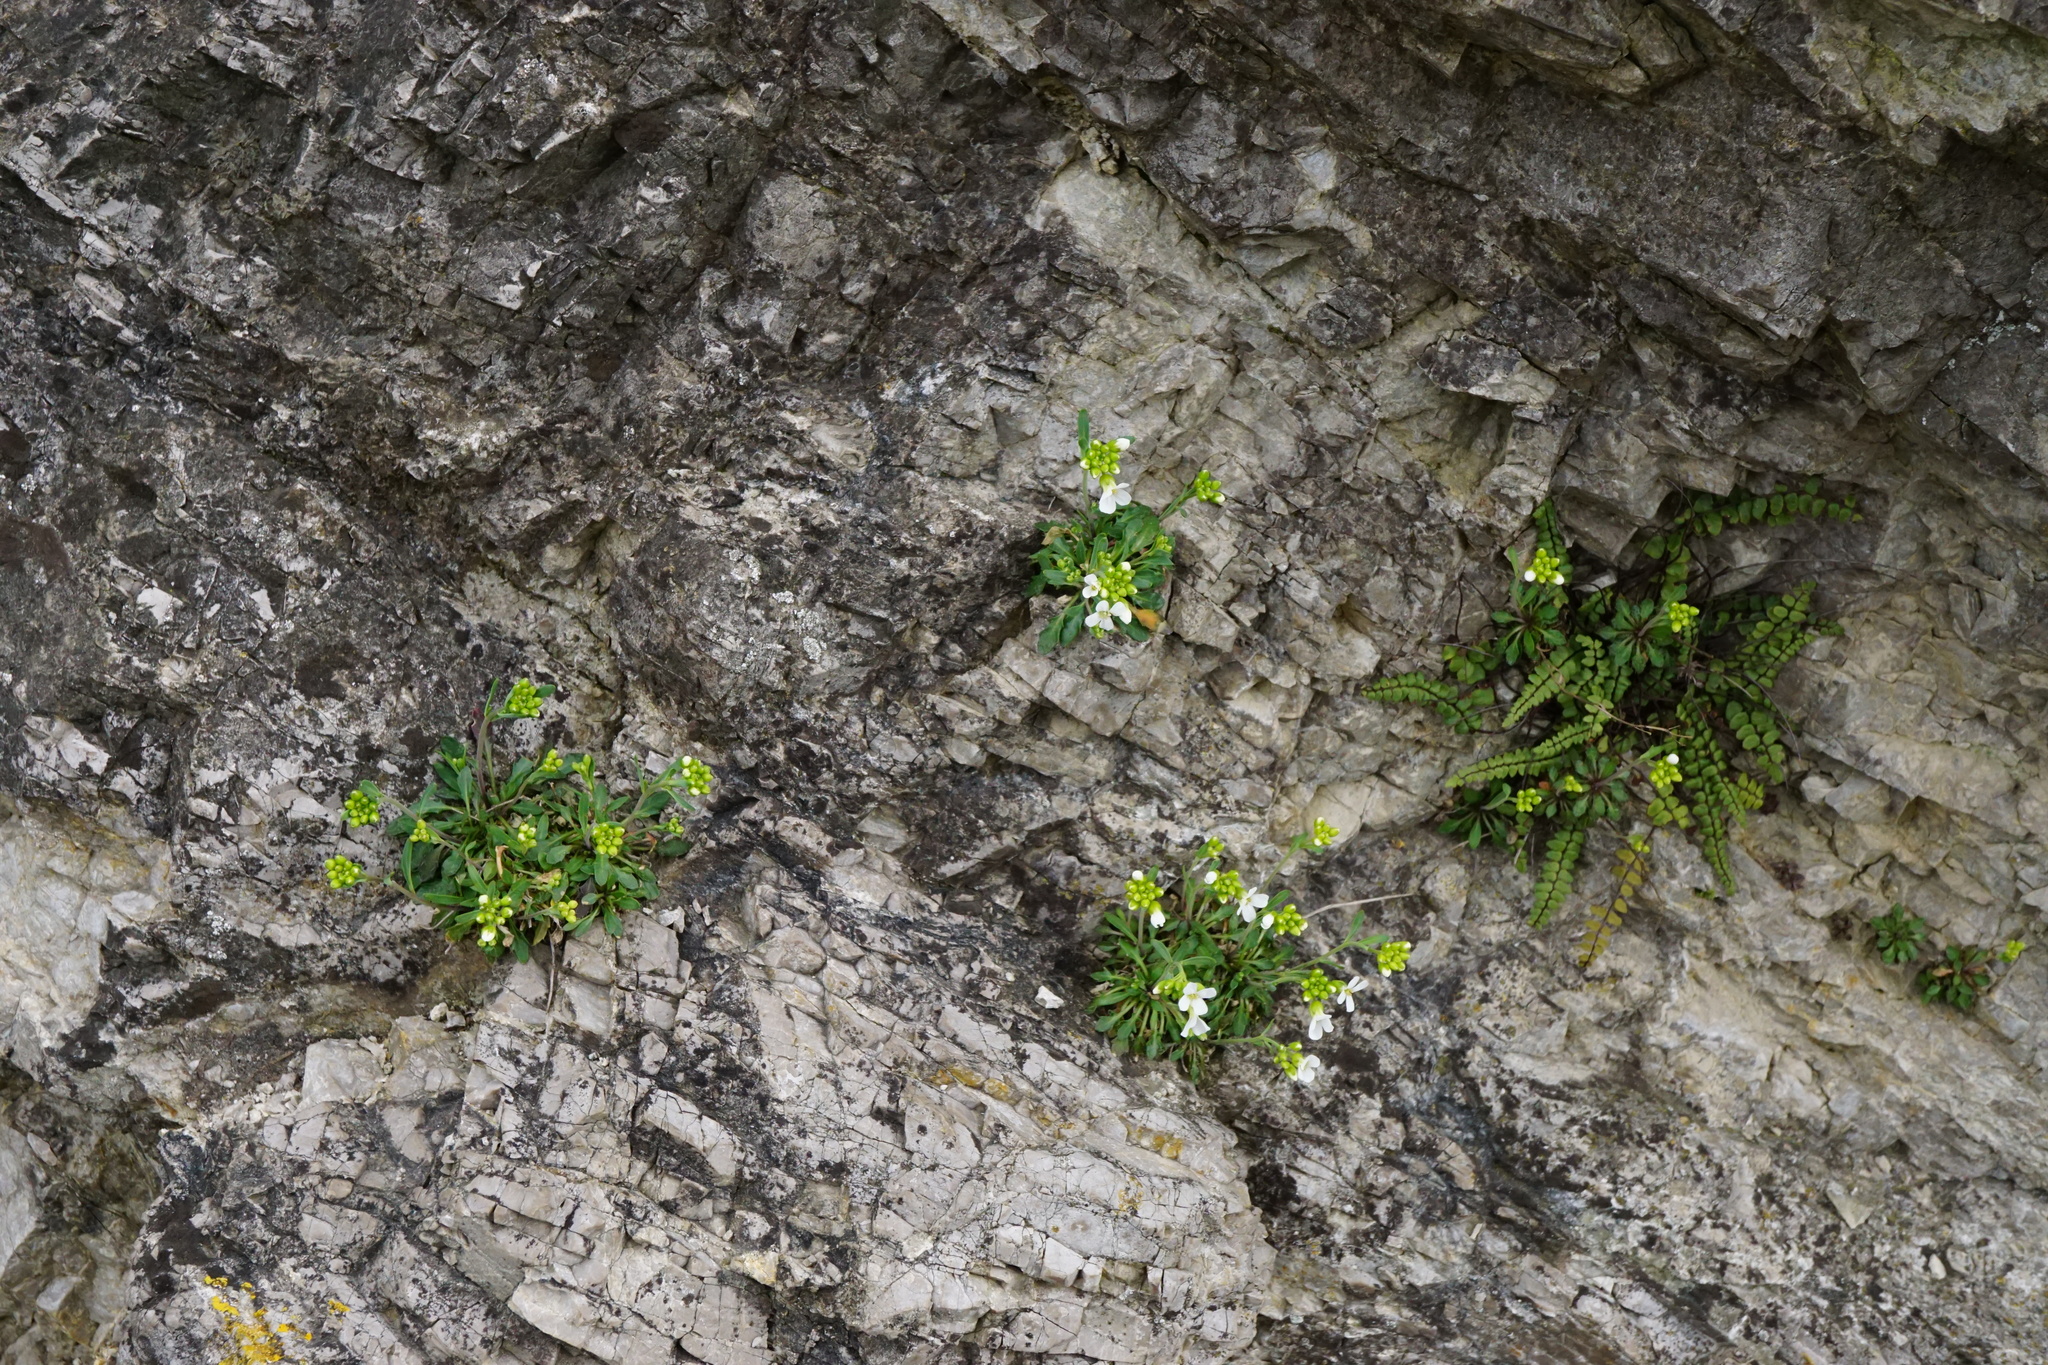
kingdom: Plantae
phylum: Tracheophyta
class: Magnoliopsida
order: Brassicales
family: Brassicaceae
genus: Arabidopsis
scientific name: Arabidopsis lyrata
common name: Lyrate rockcress
